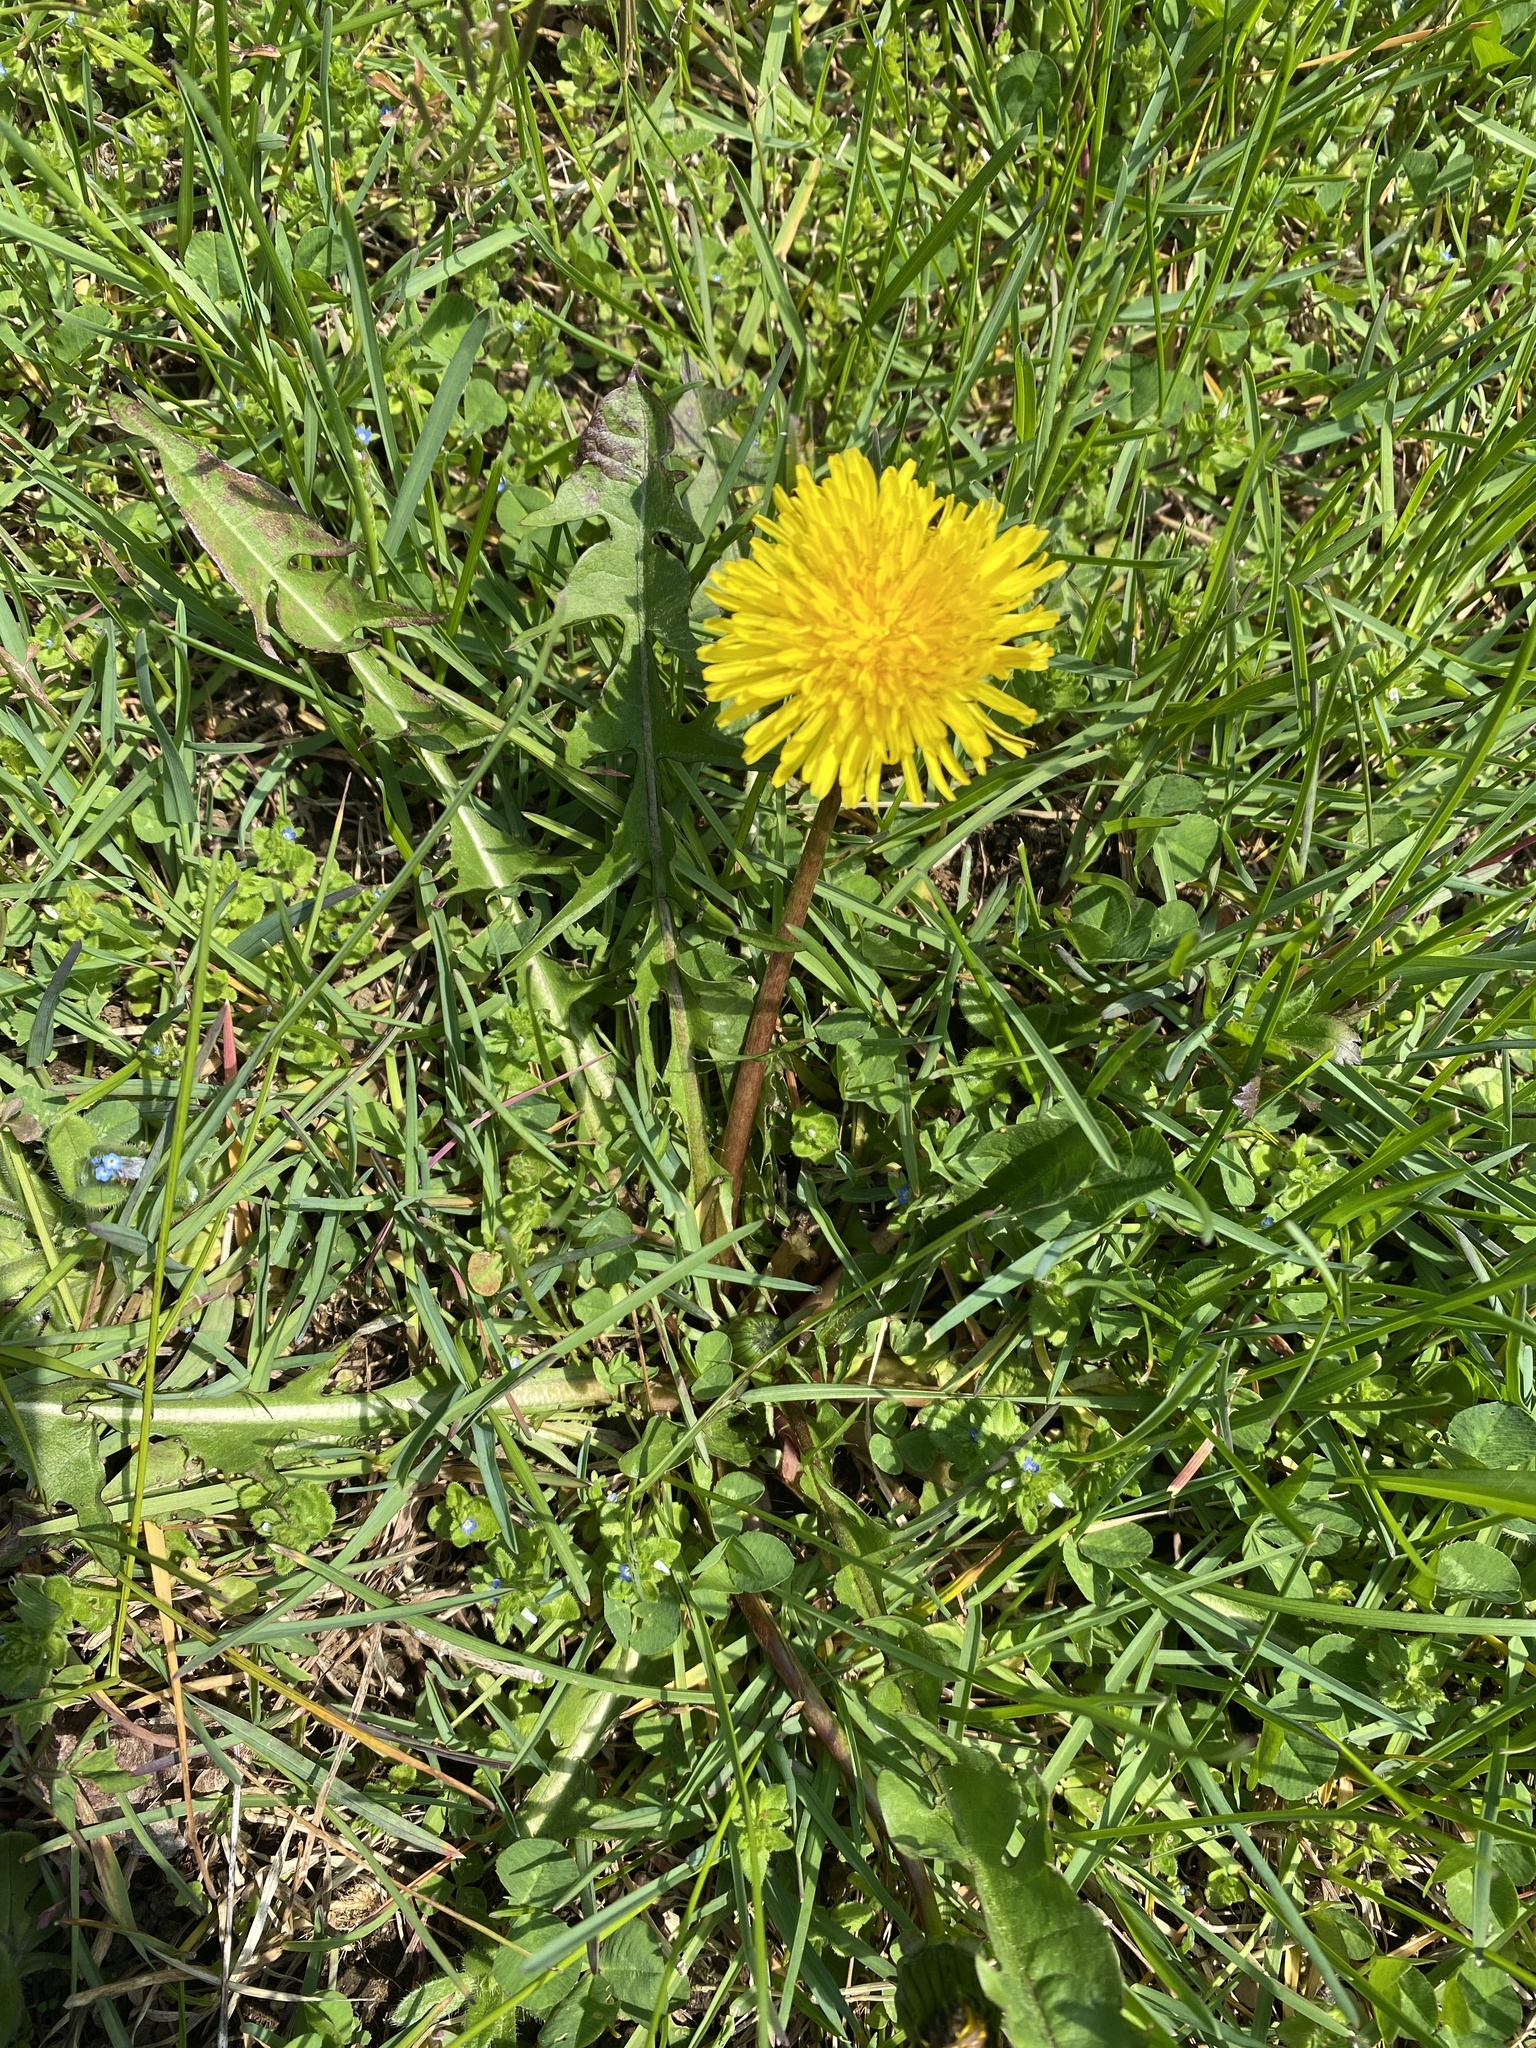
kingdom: Plantae
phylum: Tracheophyta
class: Magnoliopsida
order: Asterales
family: Asteraceae
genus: Taraxacum
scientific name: Taraxacum officinale
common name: Common dandelion
